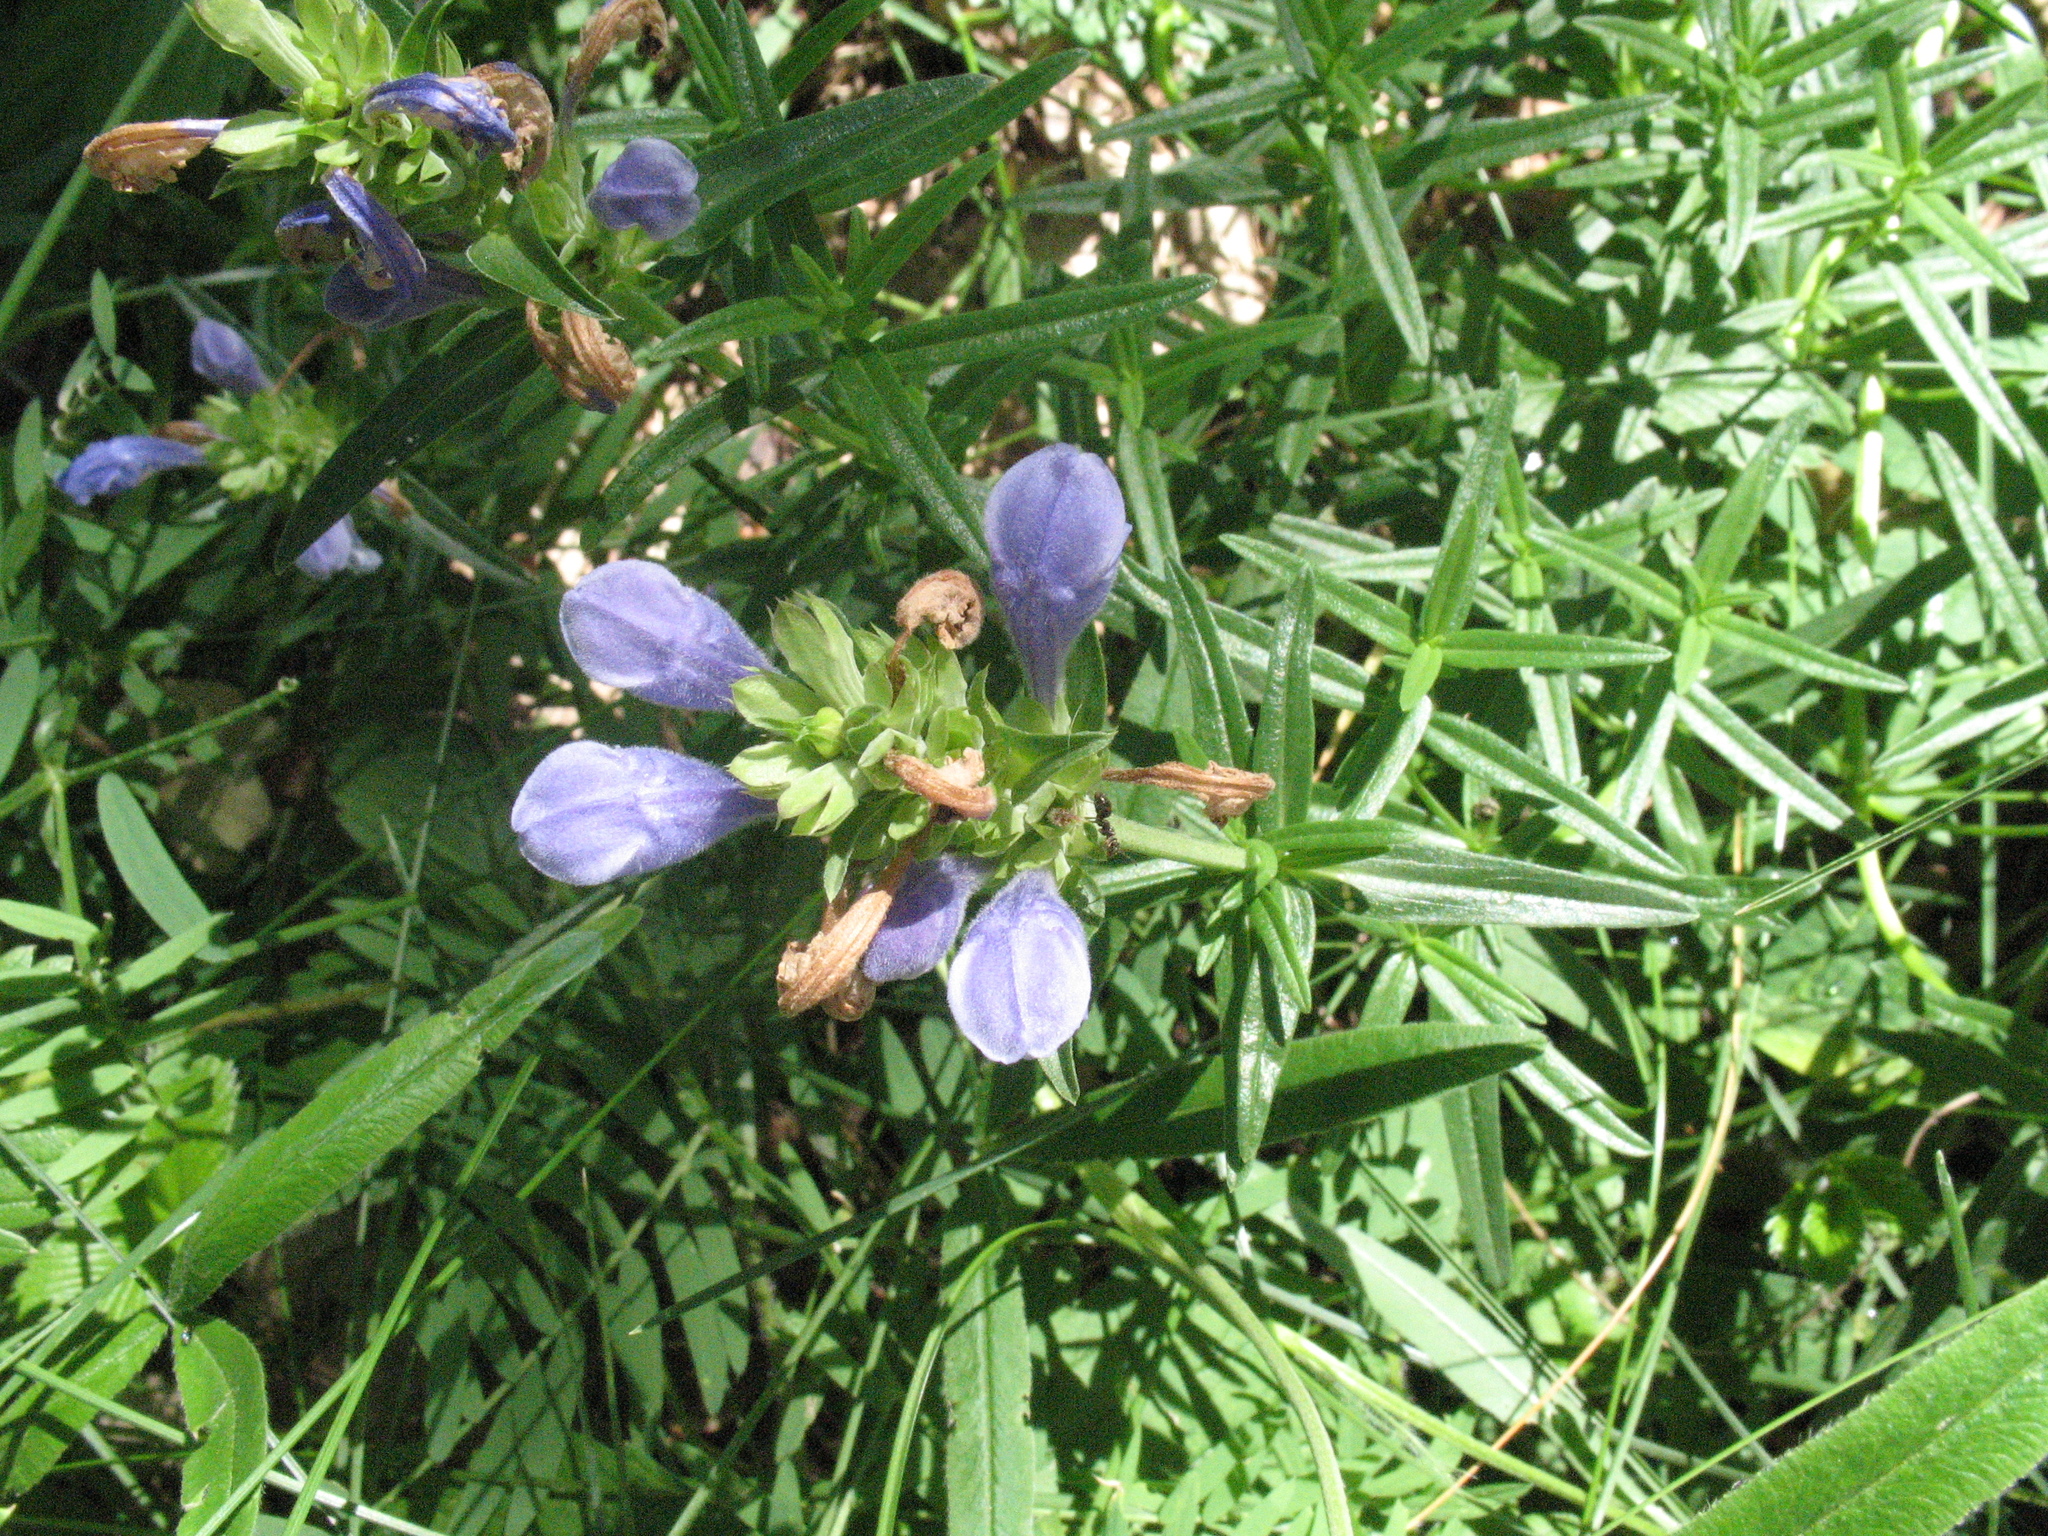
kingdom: Plantae
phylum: Tracheophyta
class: Magnoliopsida
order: Lamiales
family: Lamiaceae
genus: Dracocephalum
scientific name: Dracocephalum ruyschiana
